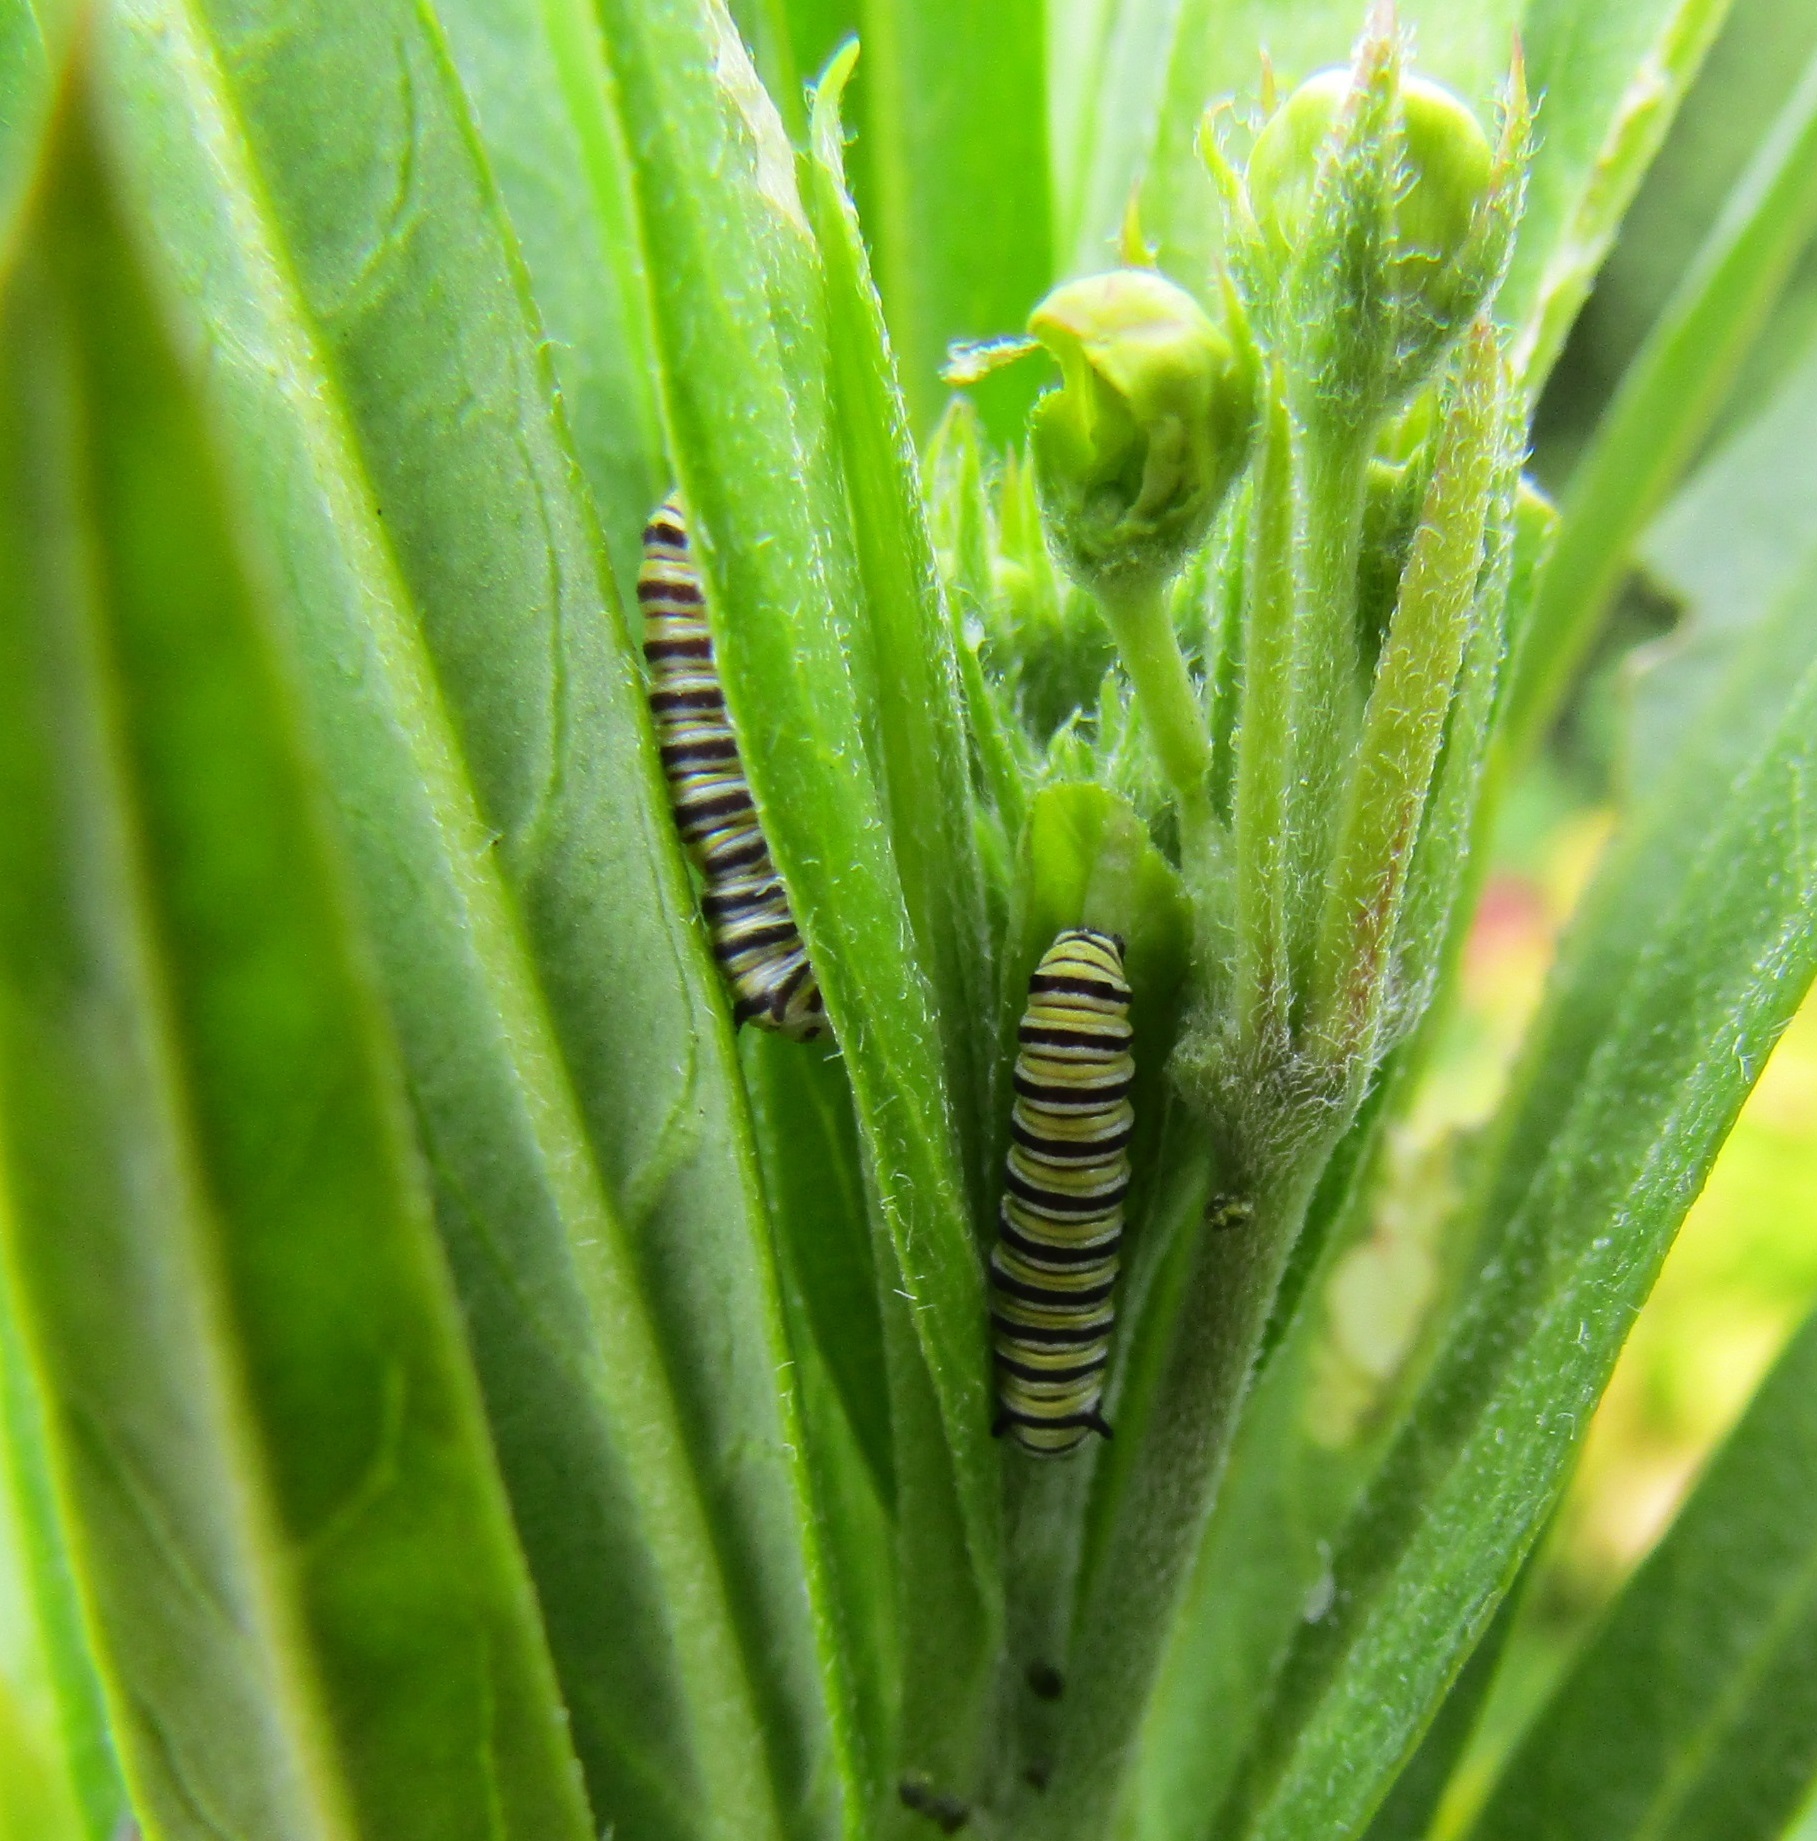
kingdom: Animalia
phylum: Arthropoda
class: Insecta
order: Lepidoptera
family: Nymphalidae
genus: Danaus
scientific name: Danaus plexippus
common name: Monarch
